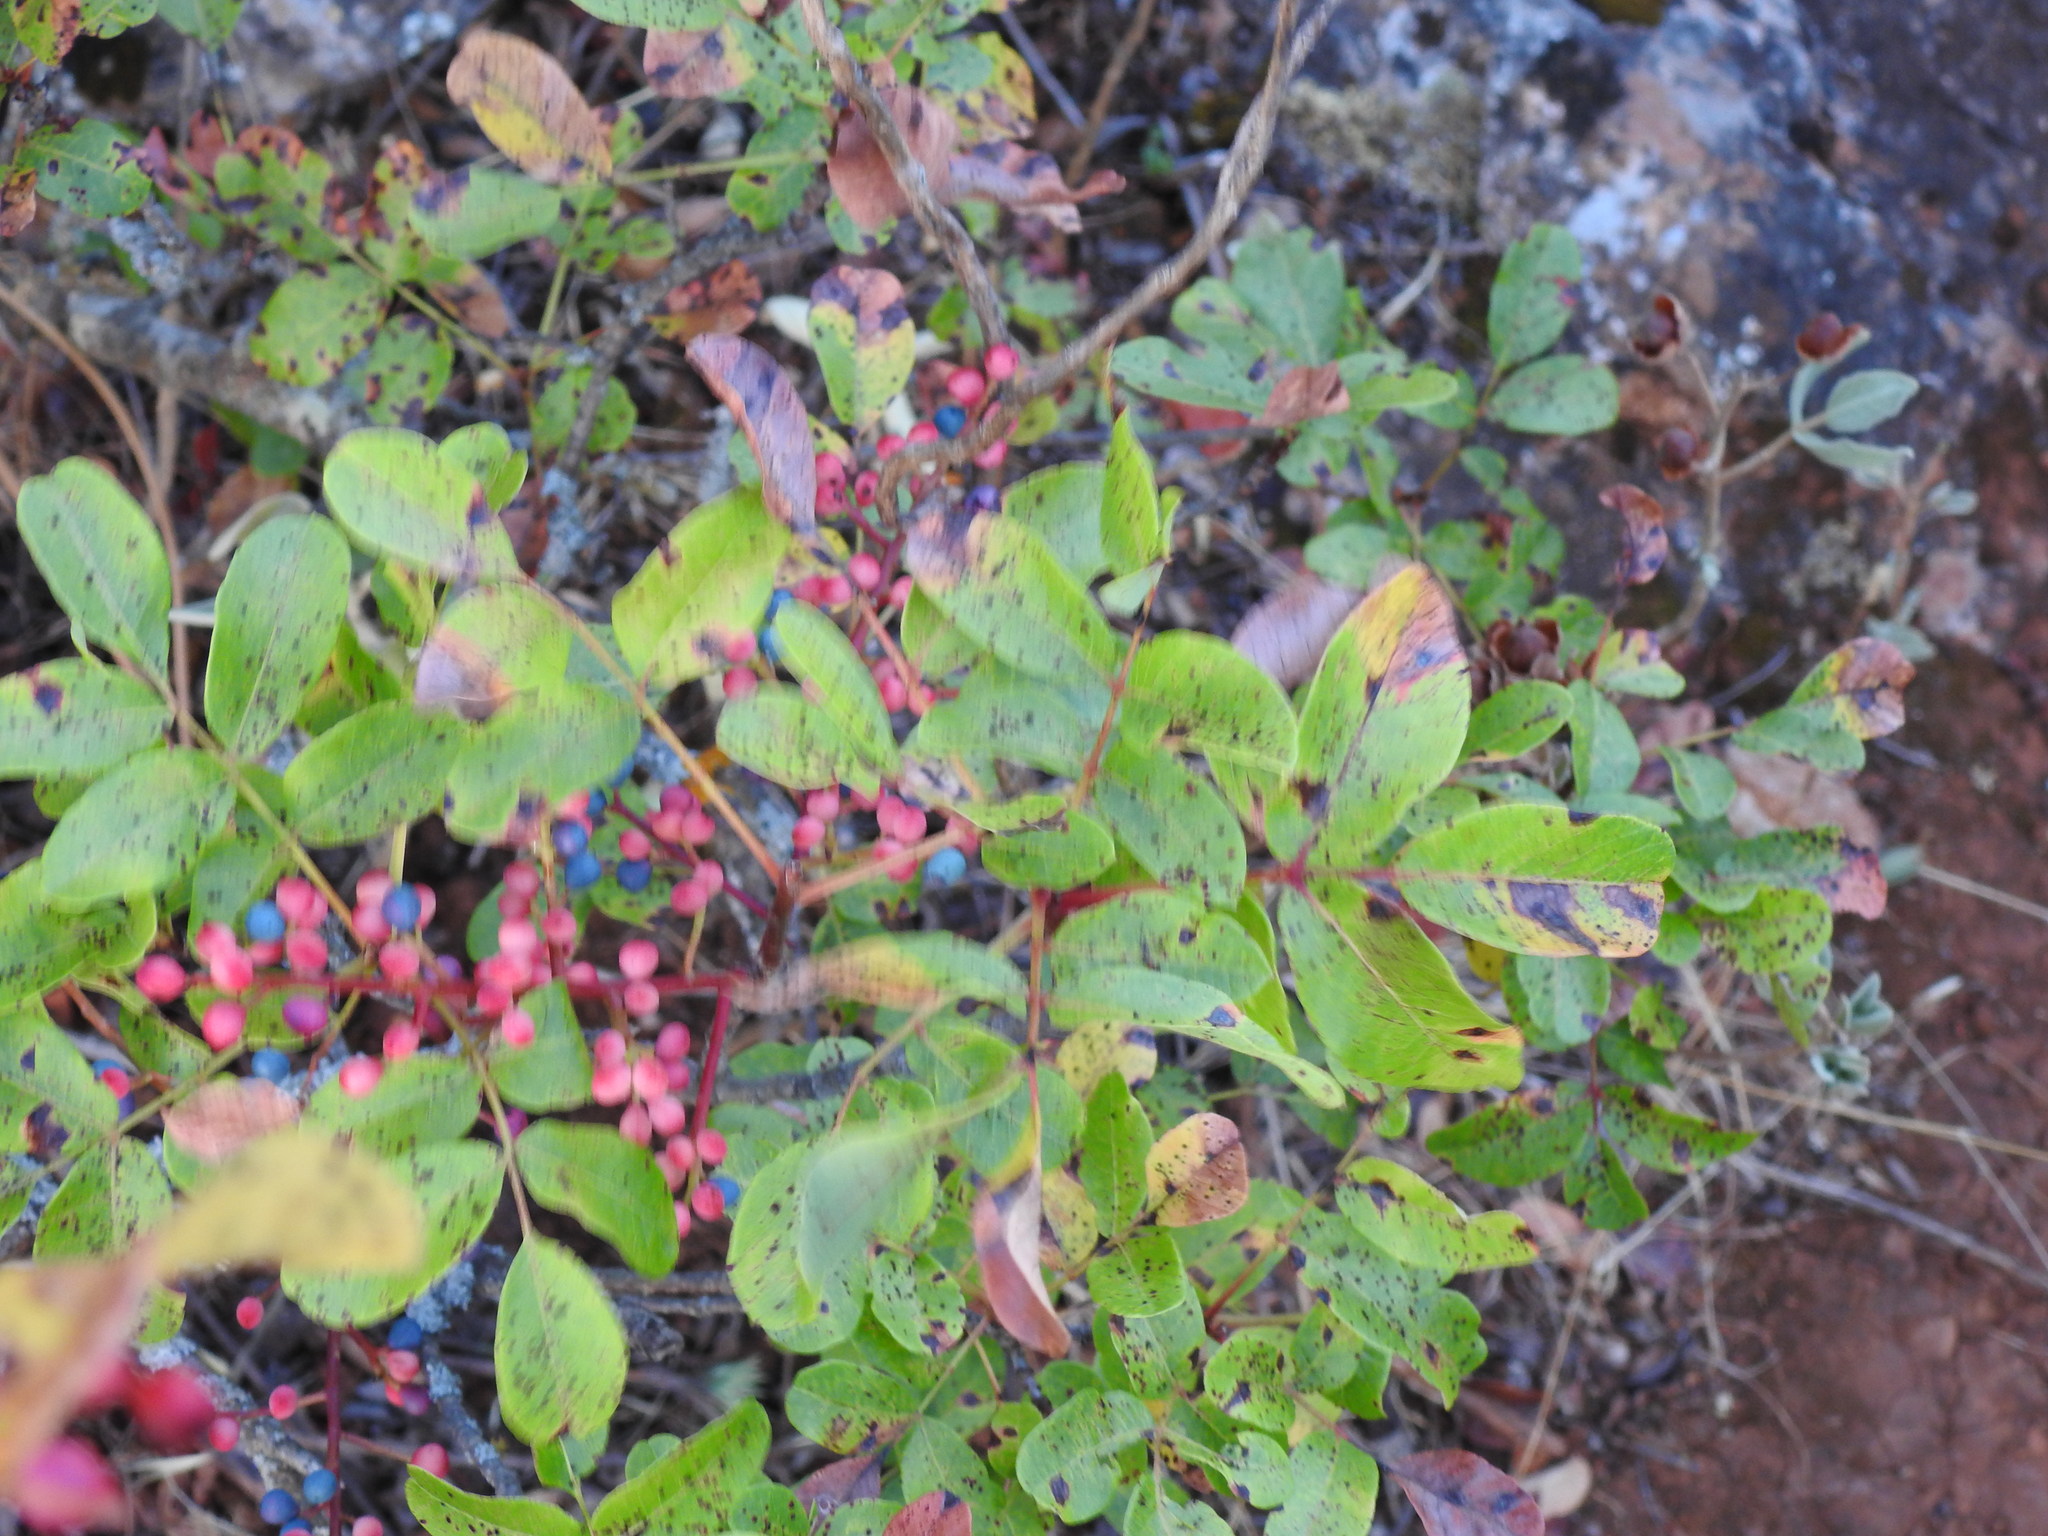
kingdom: Plantae
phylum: Tracheophyta
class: Magnoliopsida
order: Sapindales
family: Anacardiaceae
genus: Pistacia
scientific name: Pistacia terebinthus
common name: Terebinth
